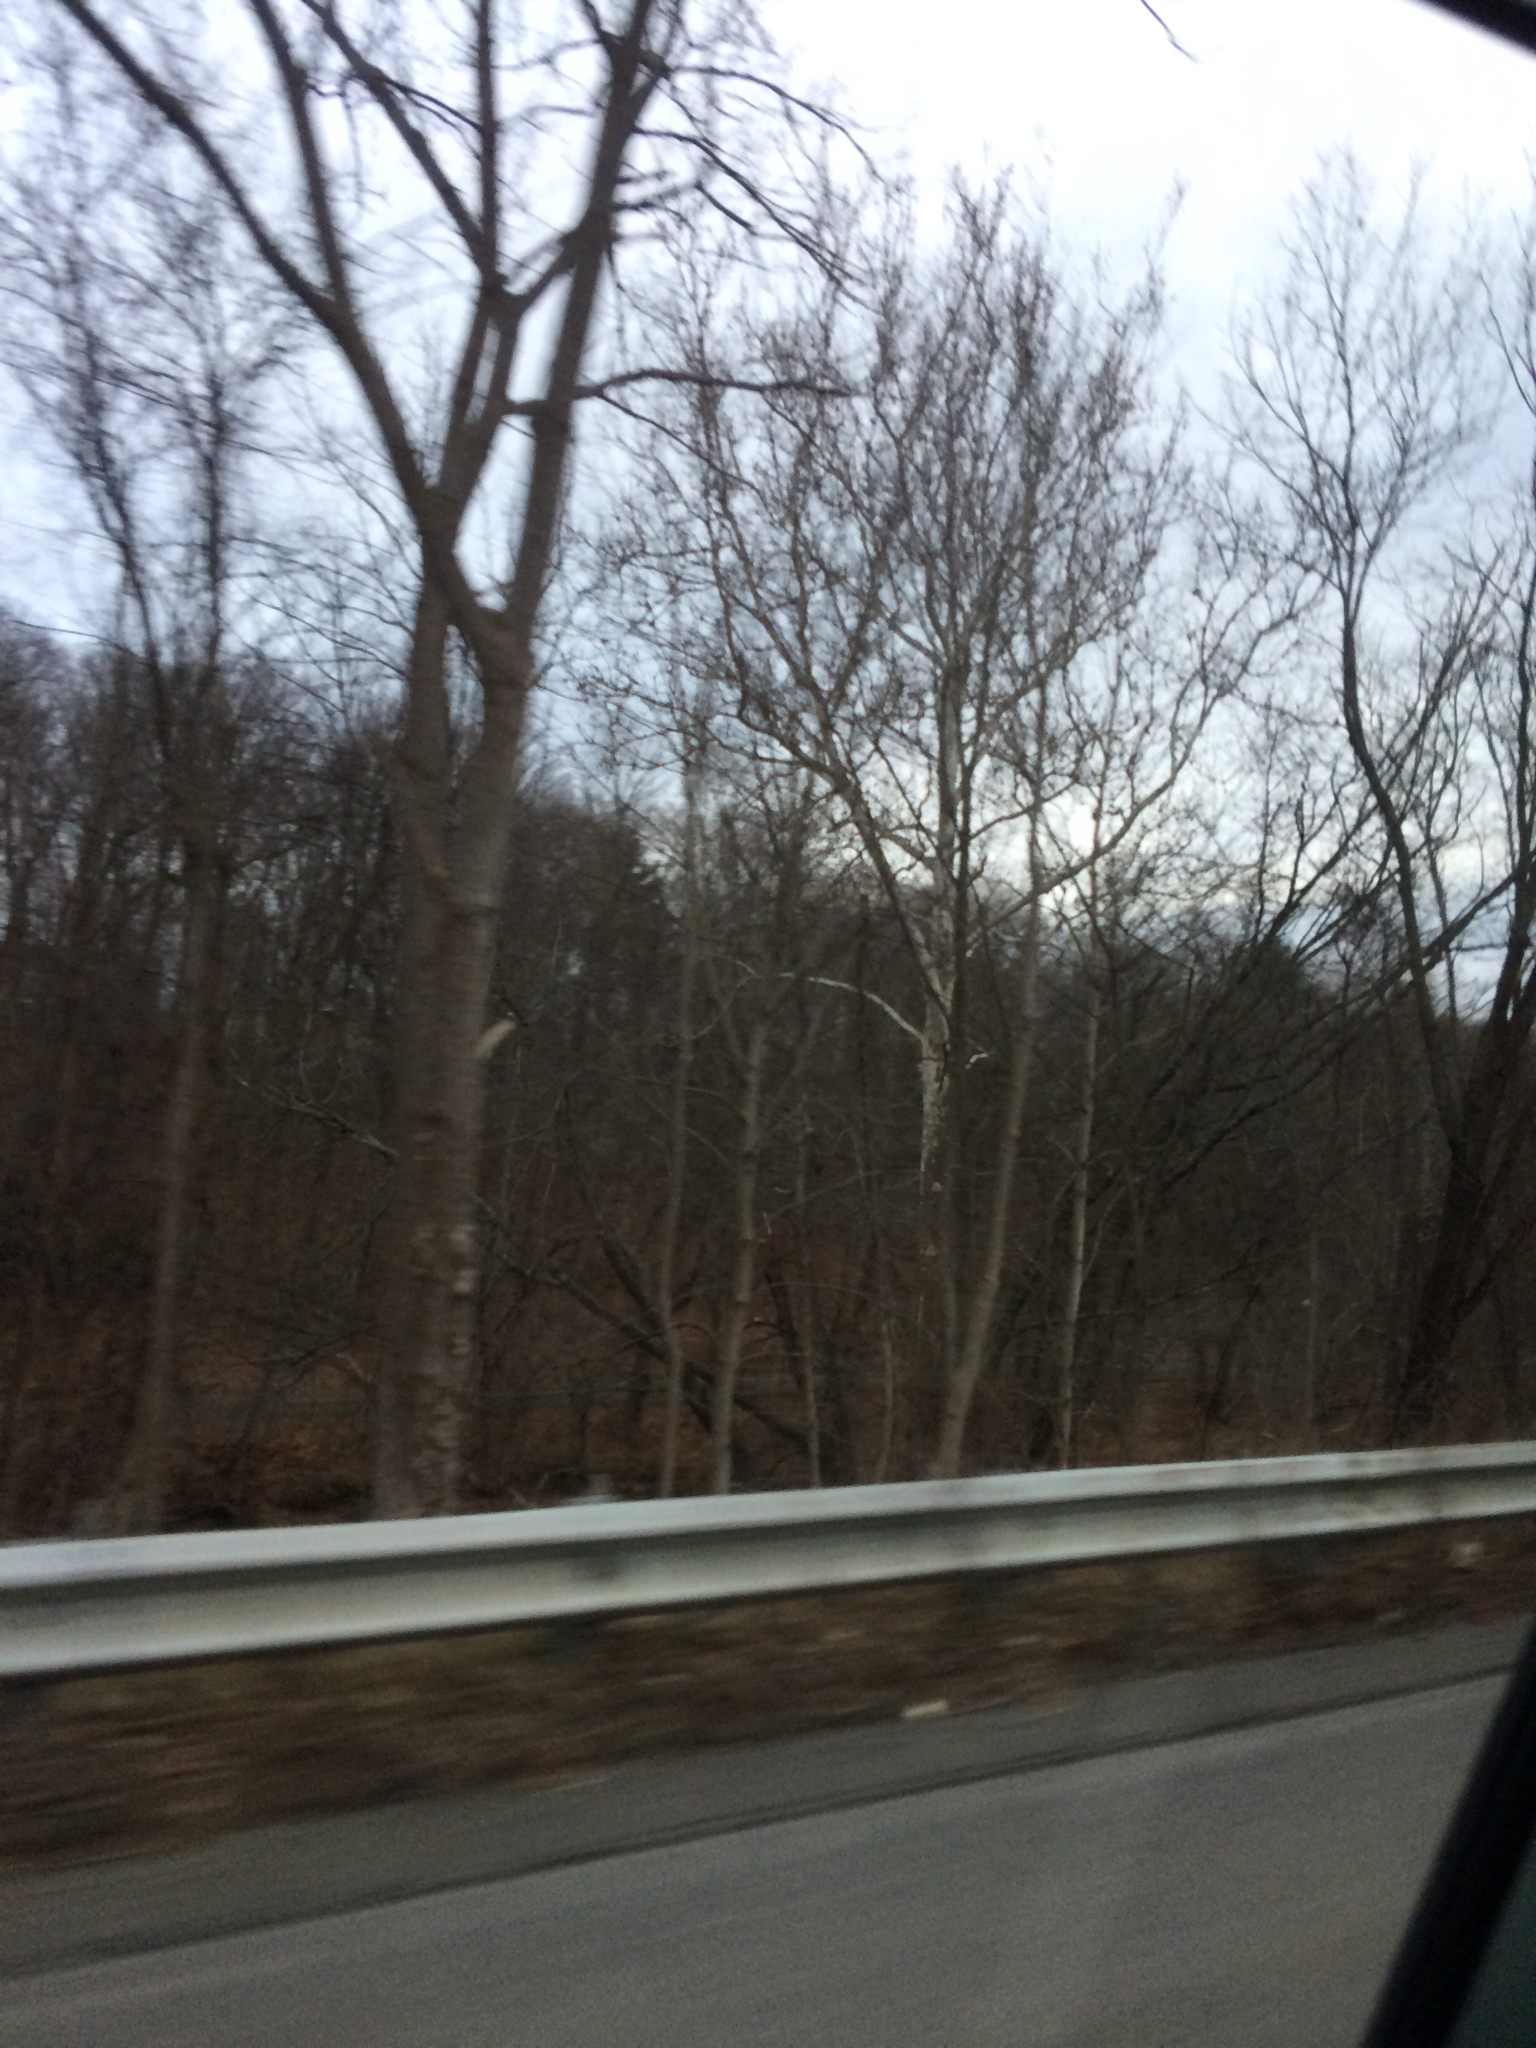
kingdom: Plantae
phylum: Tracheophyta
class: Magnoliopsida
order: Proteales
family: Platanaceae
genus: Platanus
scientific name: Platanus occidentalis
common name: American sycamore
